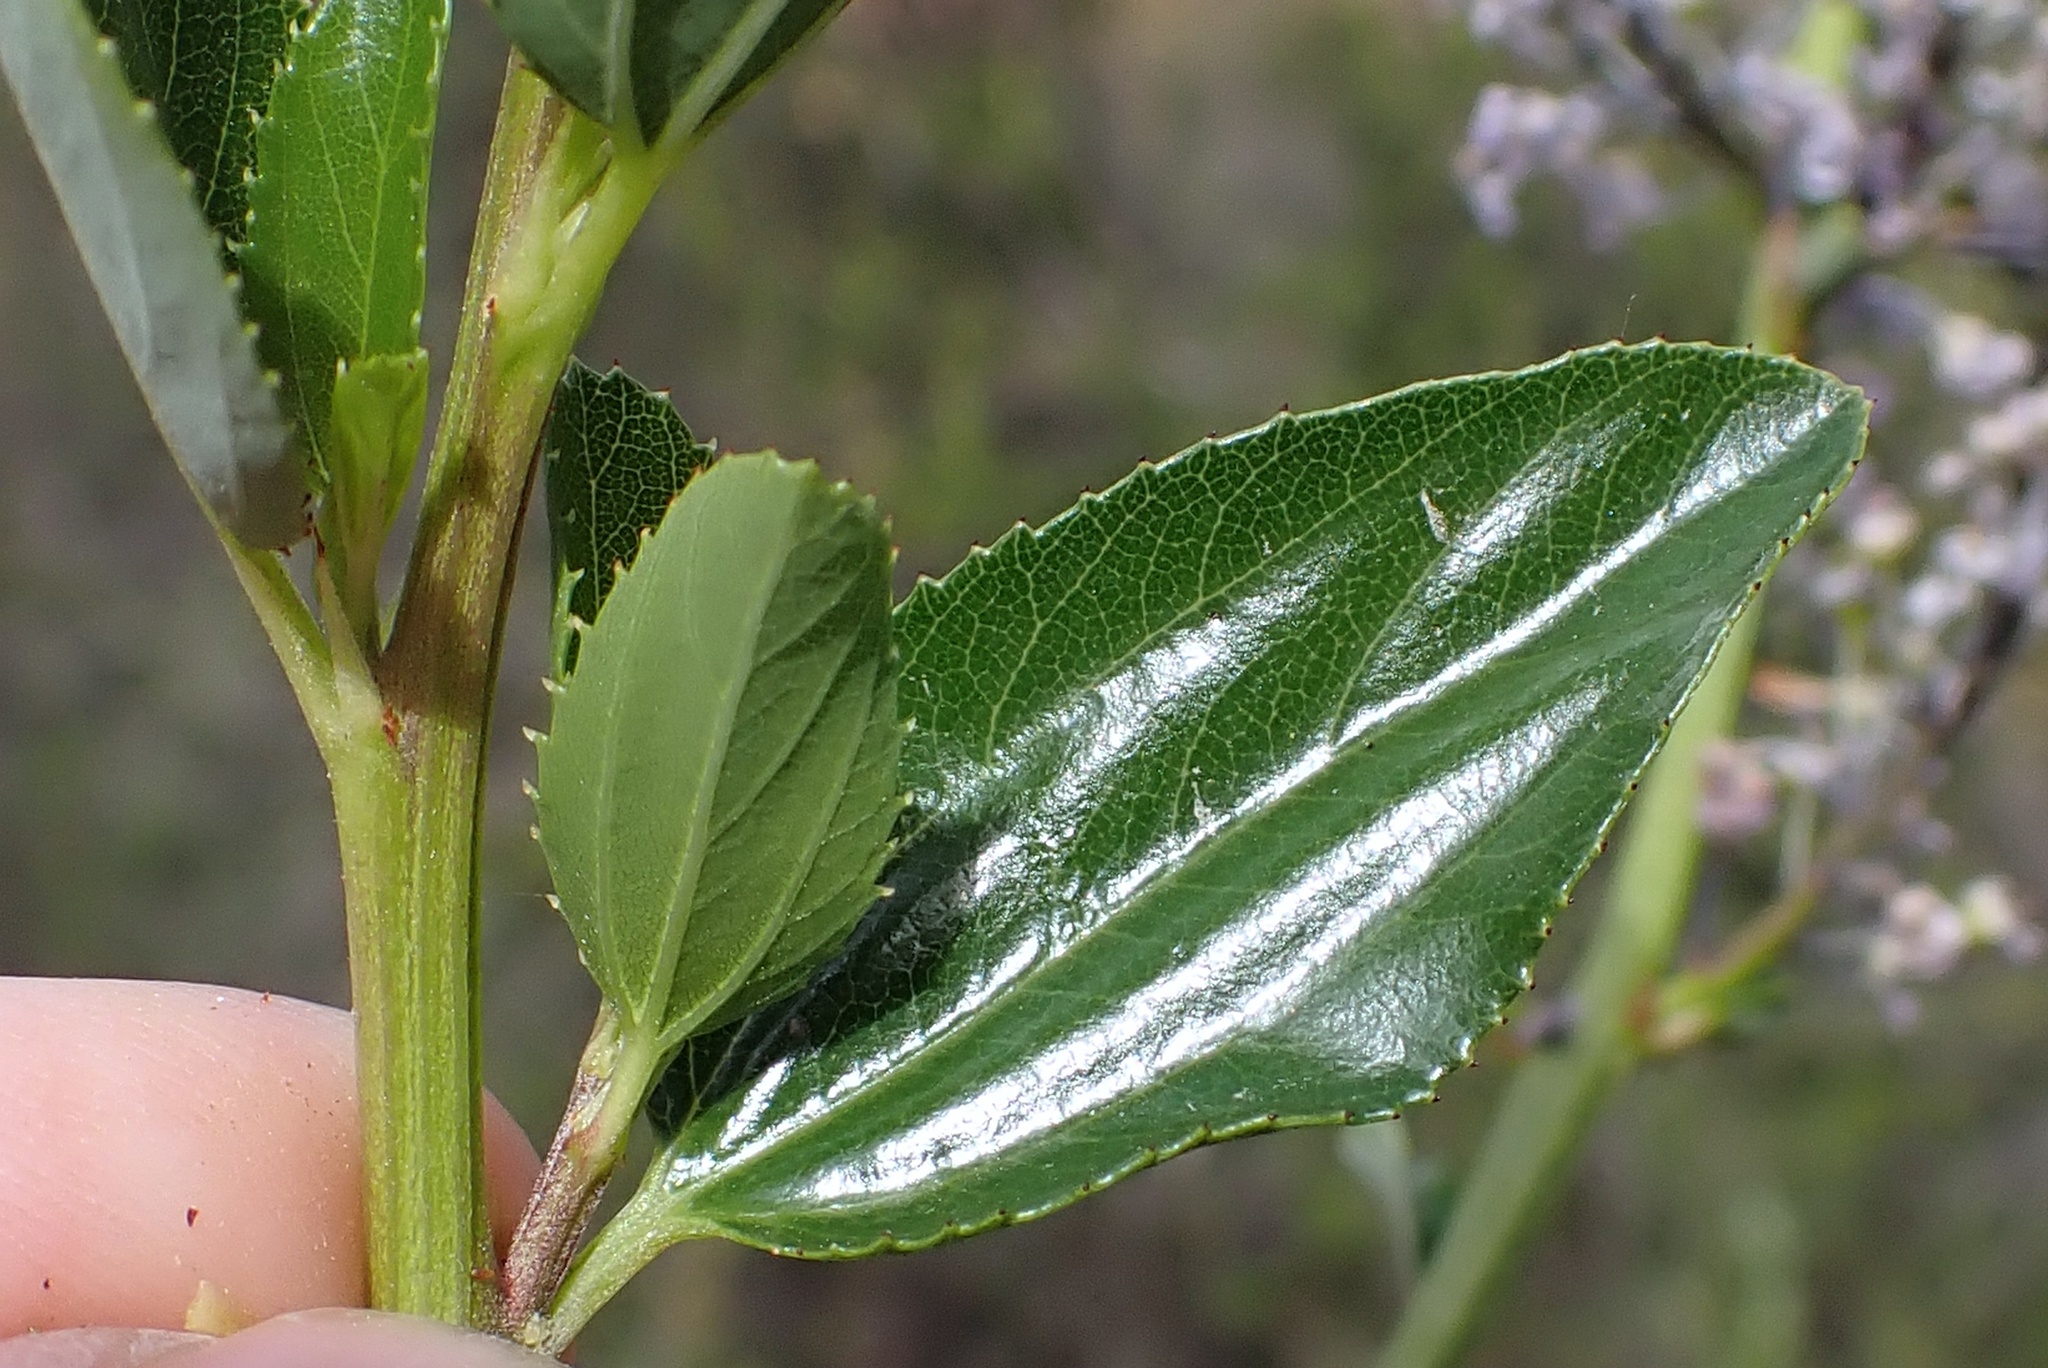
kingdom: Plantae
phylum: Tracheophyta
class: Magnoliopsida
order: Rosales
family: Rhamnaceae
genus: Ceanothus
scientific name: Ceanothus cyaneus
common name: Lakeside ceanothus
